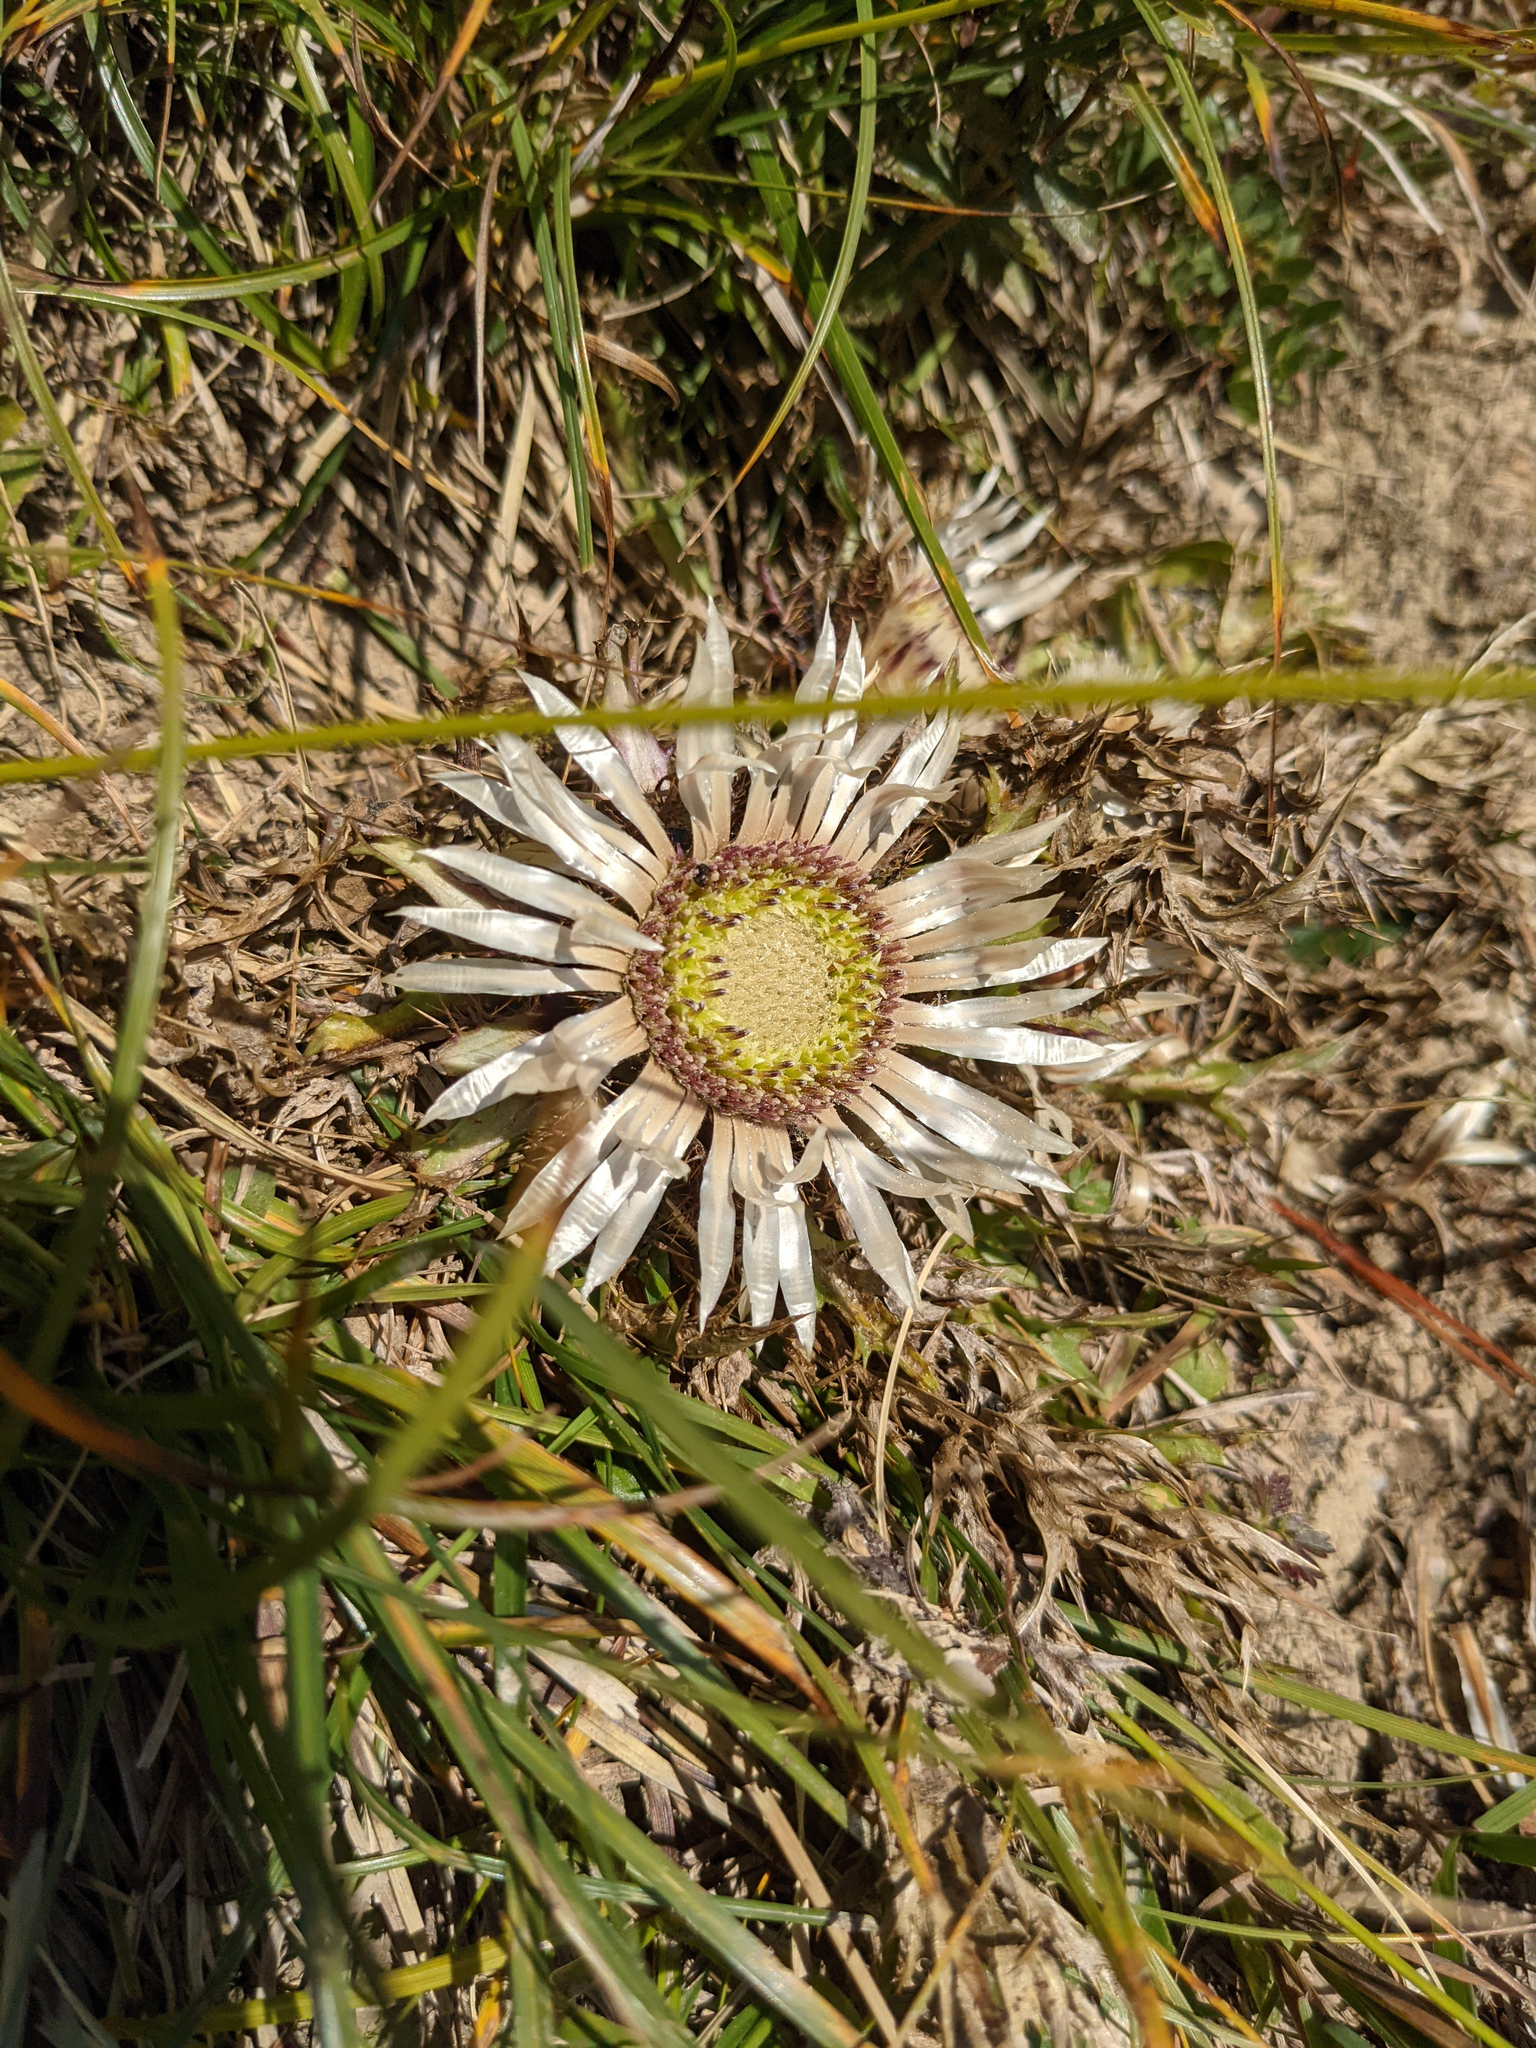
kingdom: Plantae
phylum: Tracheophyta
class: Magnoliopsida
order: Asterales
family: Asteraceae
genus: Carlina
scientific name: Carlina acaulis
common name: Stemless carline thistle
